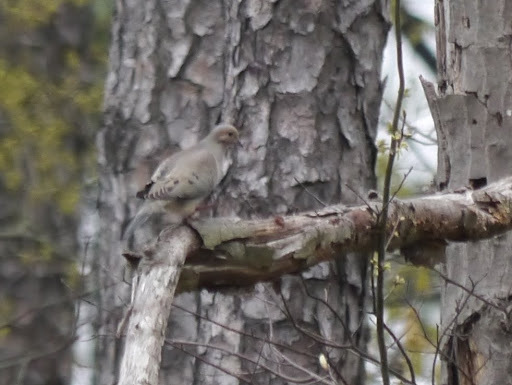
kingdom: Animalia
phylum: Chordata
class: Aves
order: Columbiformes
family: Columbidae
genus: Zenaida
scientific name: Zenaida macroura
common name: Mourning dove
